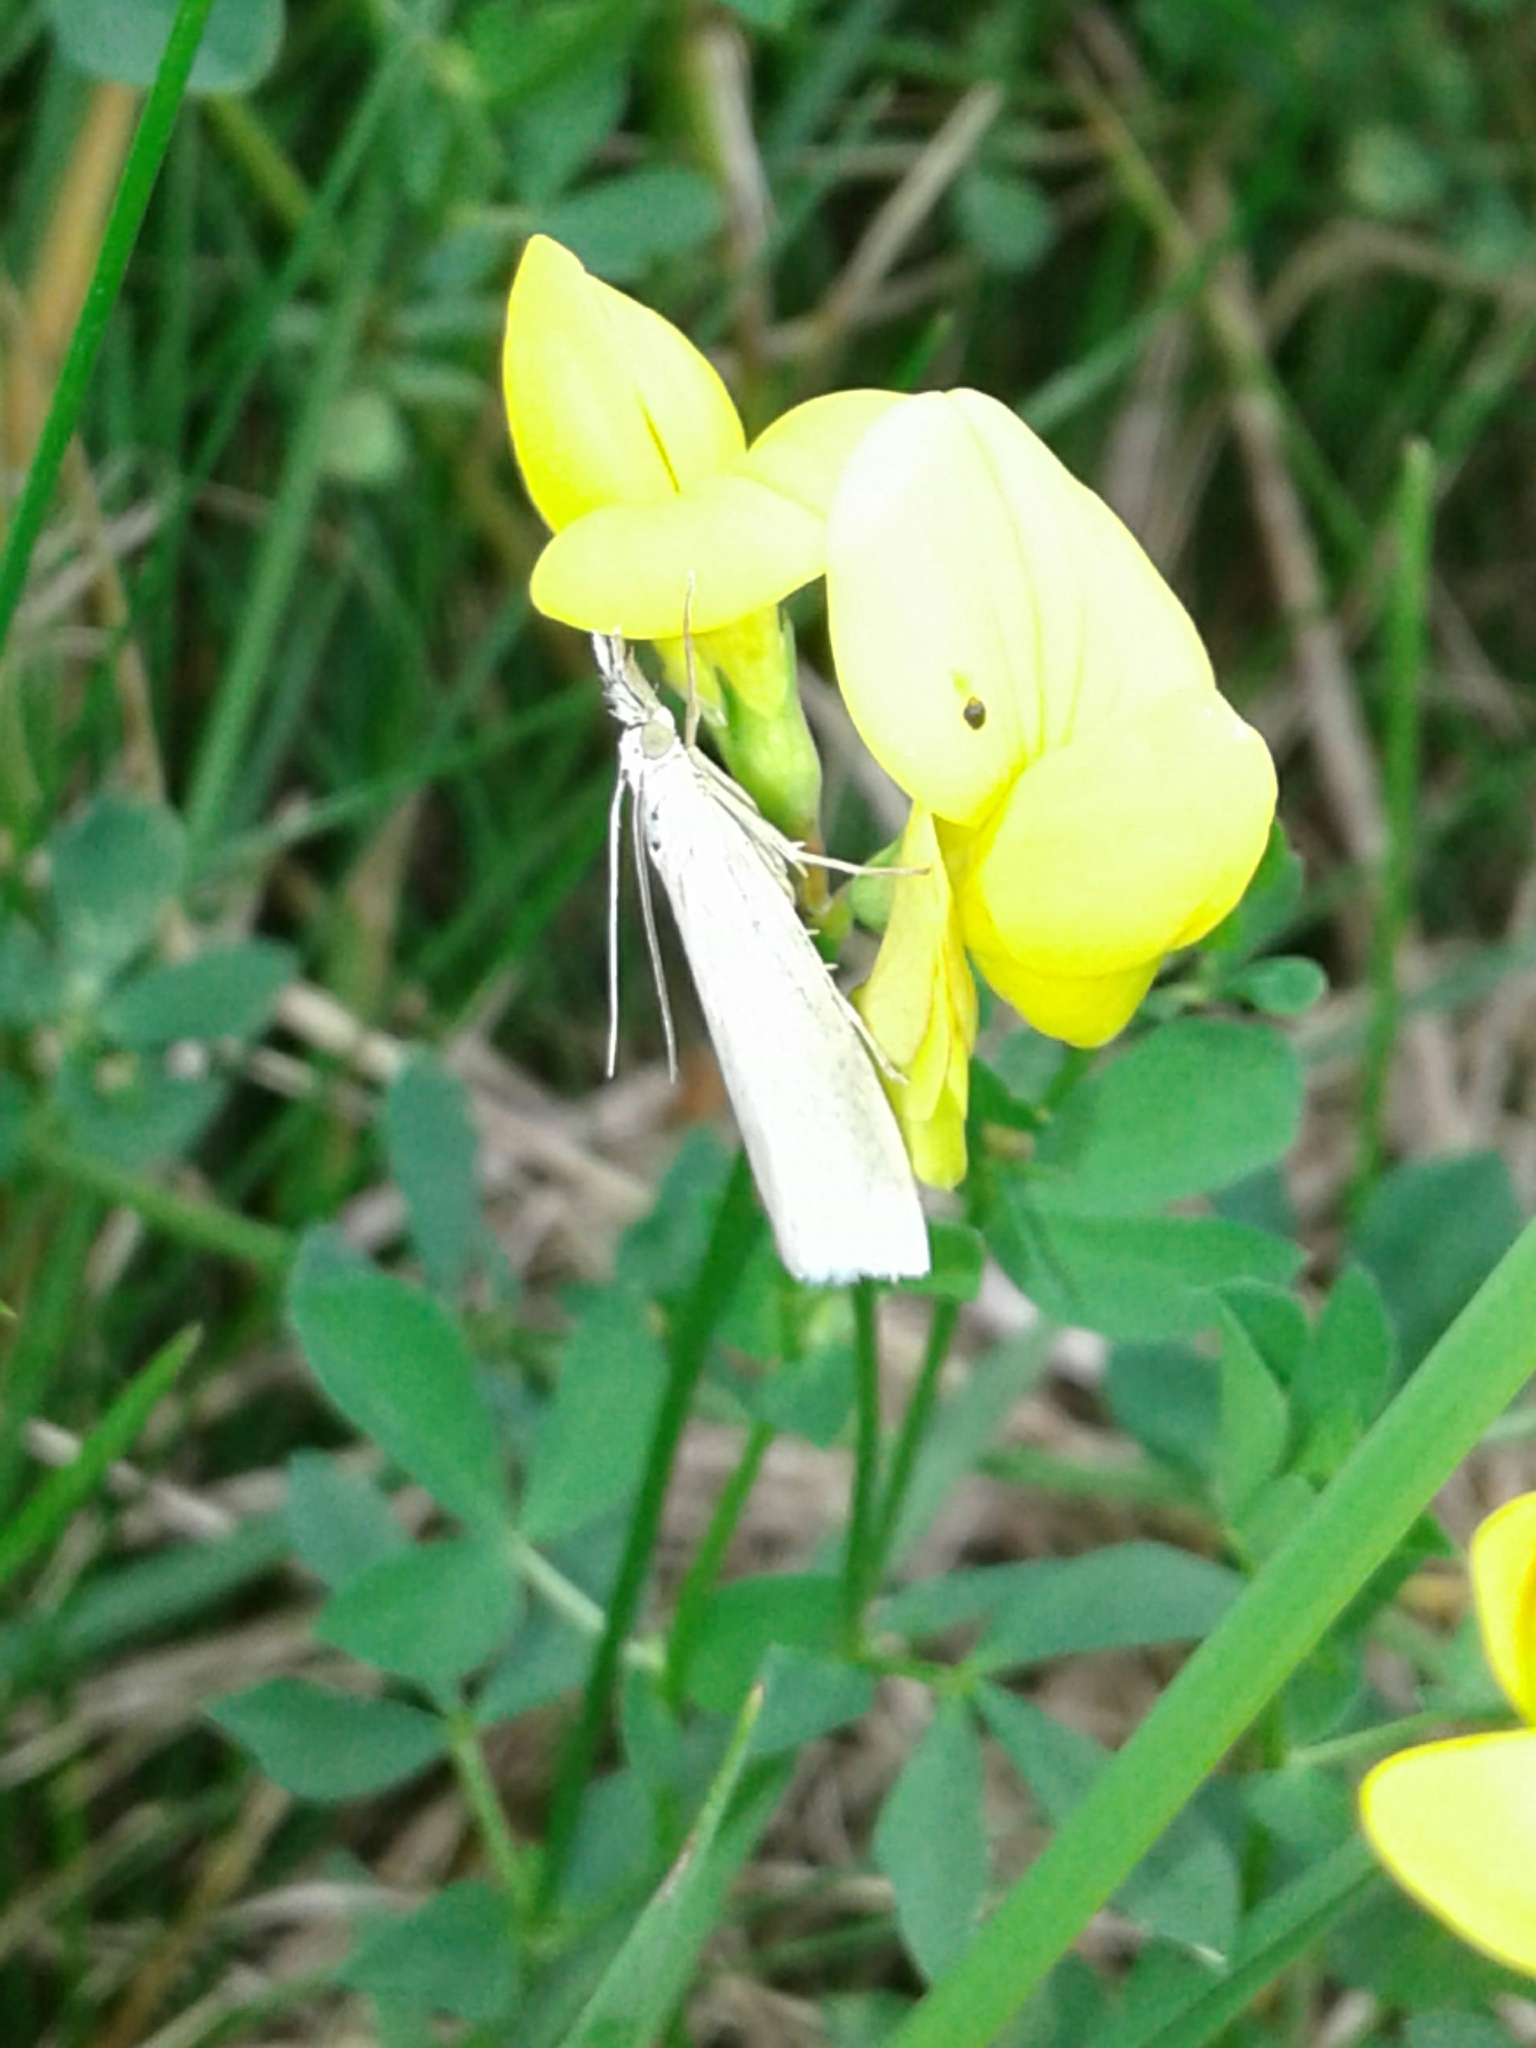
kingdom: Animalia
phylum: Arthropoda
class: Insecta
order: Lepidoptera
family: Crambidae
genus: Crambus
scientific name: Crambus perlellus
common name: Yellow satin veneer
